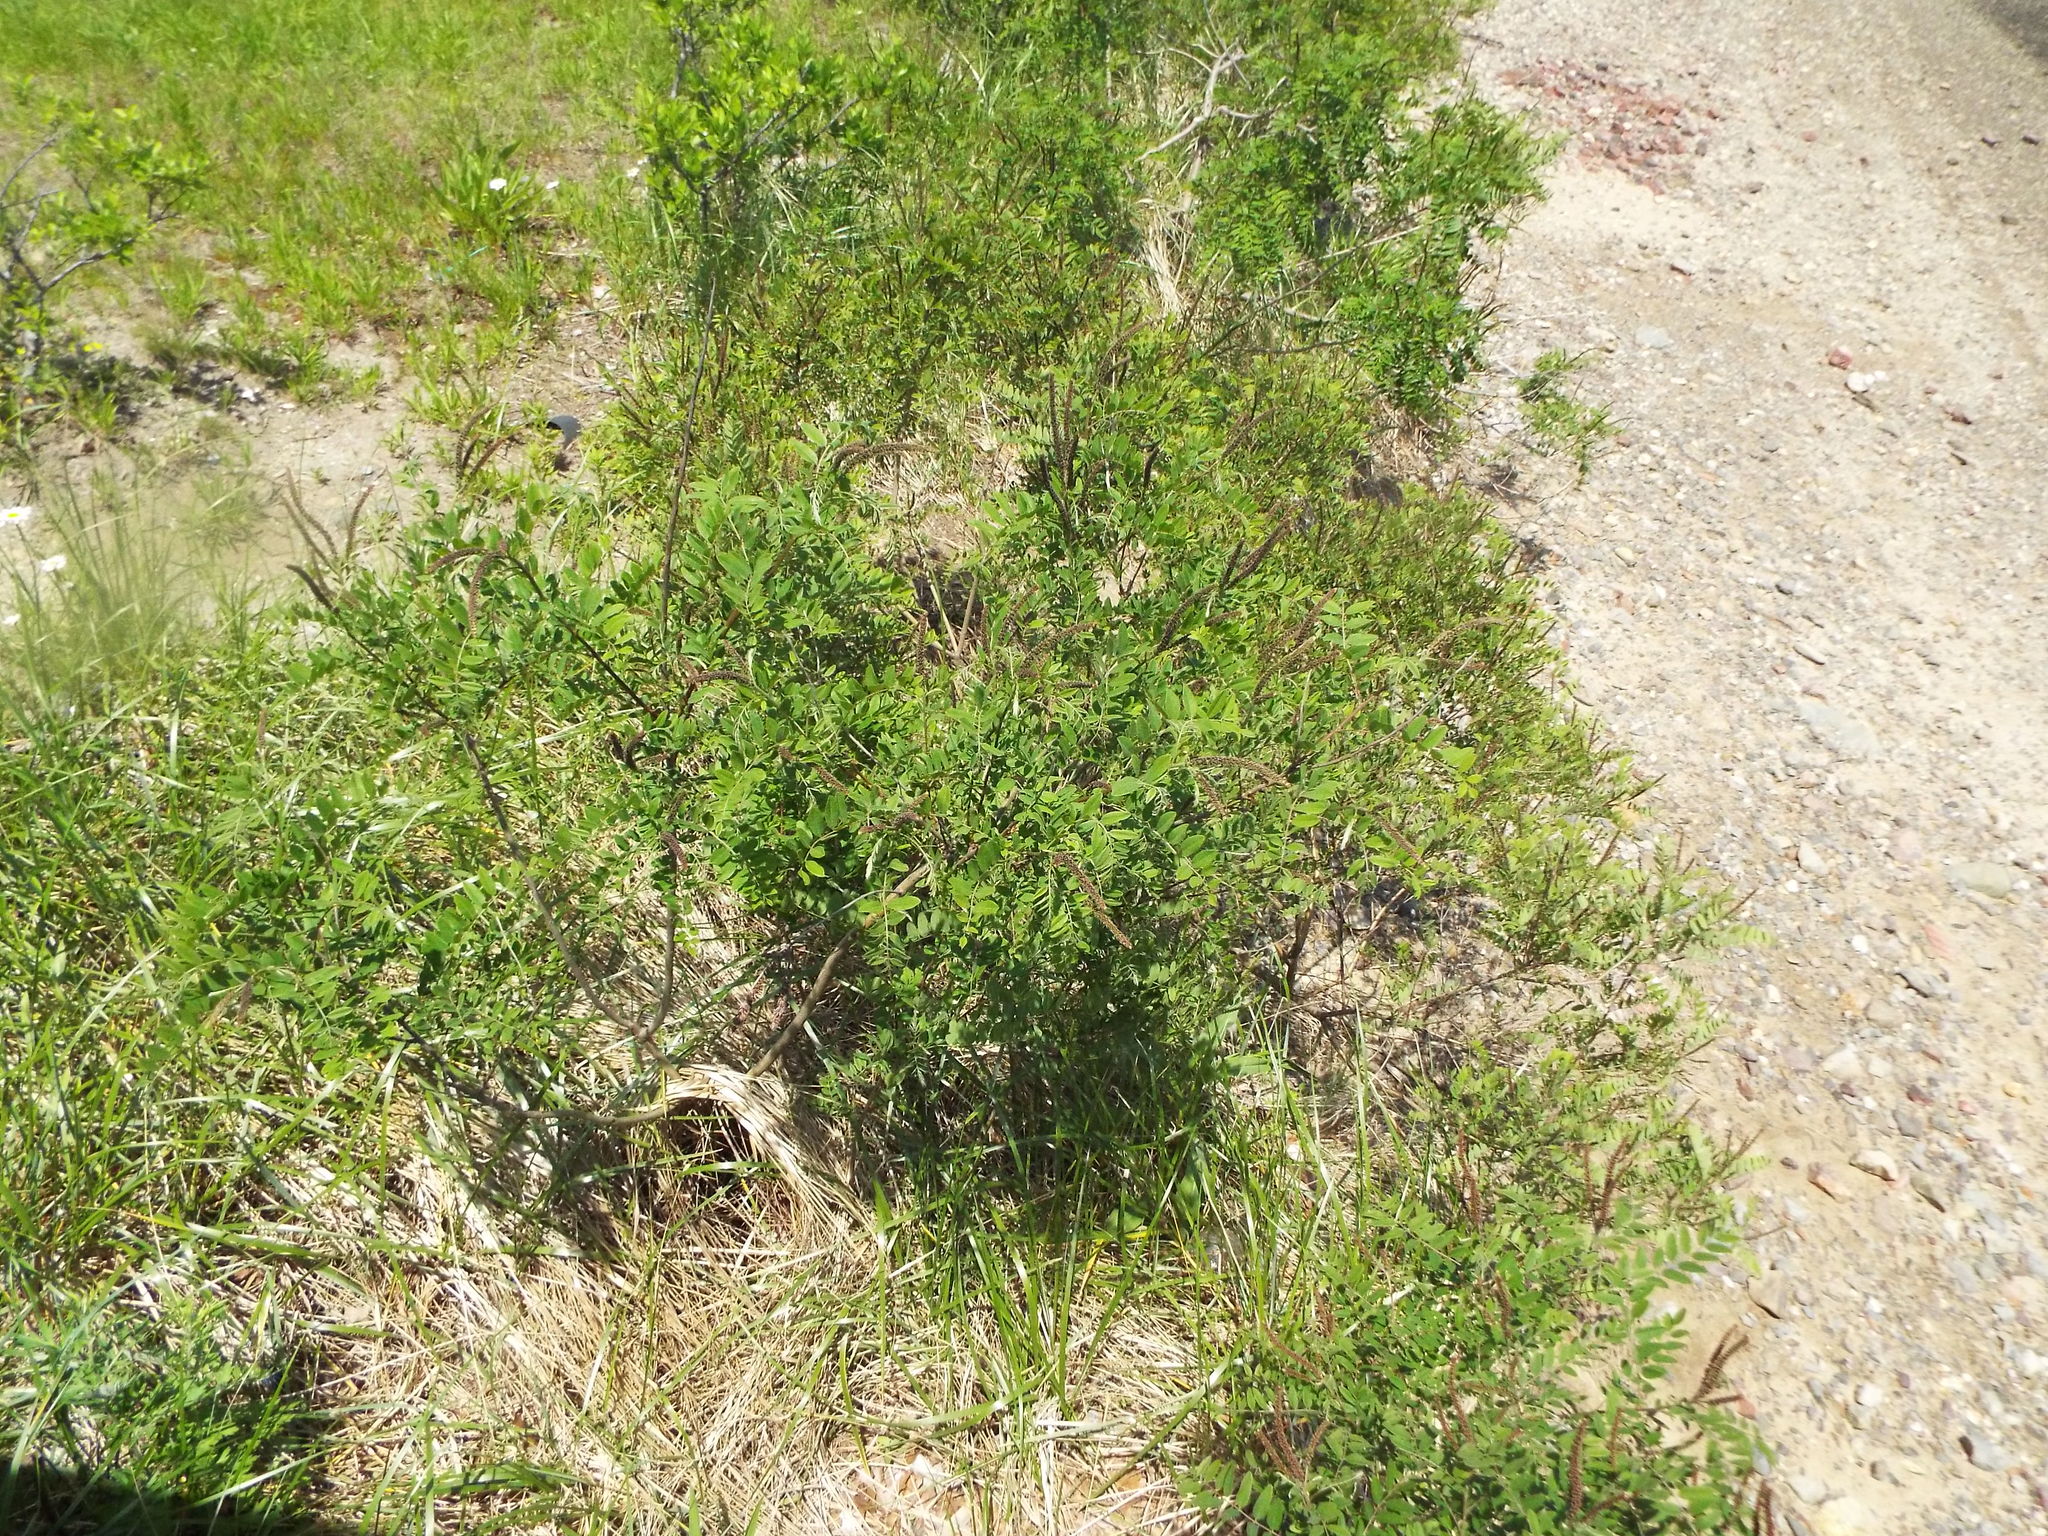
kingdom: Plantae
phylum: Tracheophyta
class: Magnoliopsida
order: Fabales
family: Fabaceae
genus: Amorpha
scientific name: Amorpha fruticosa
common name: False indigo
